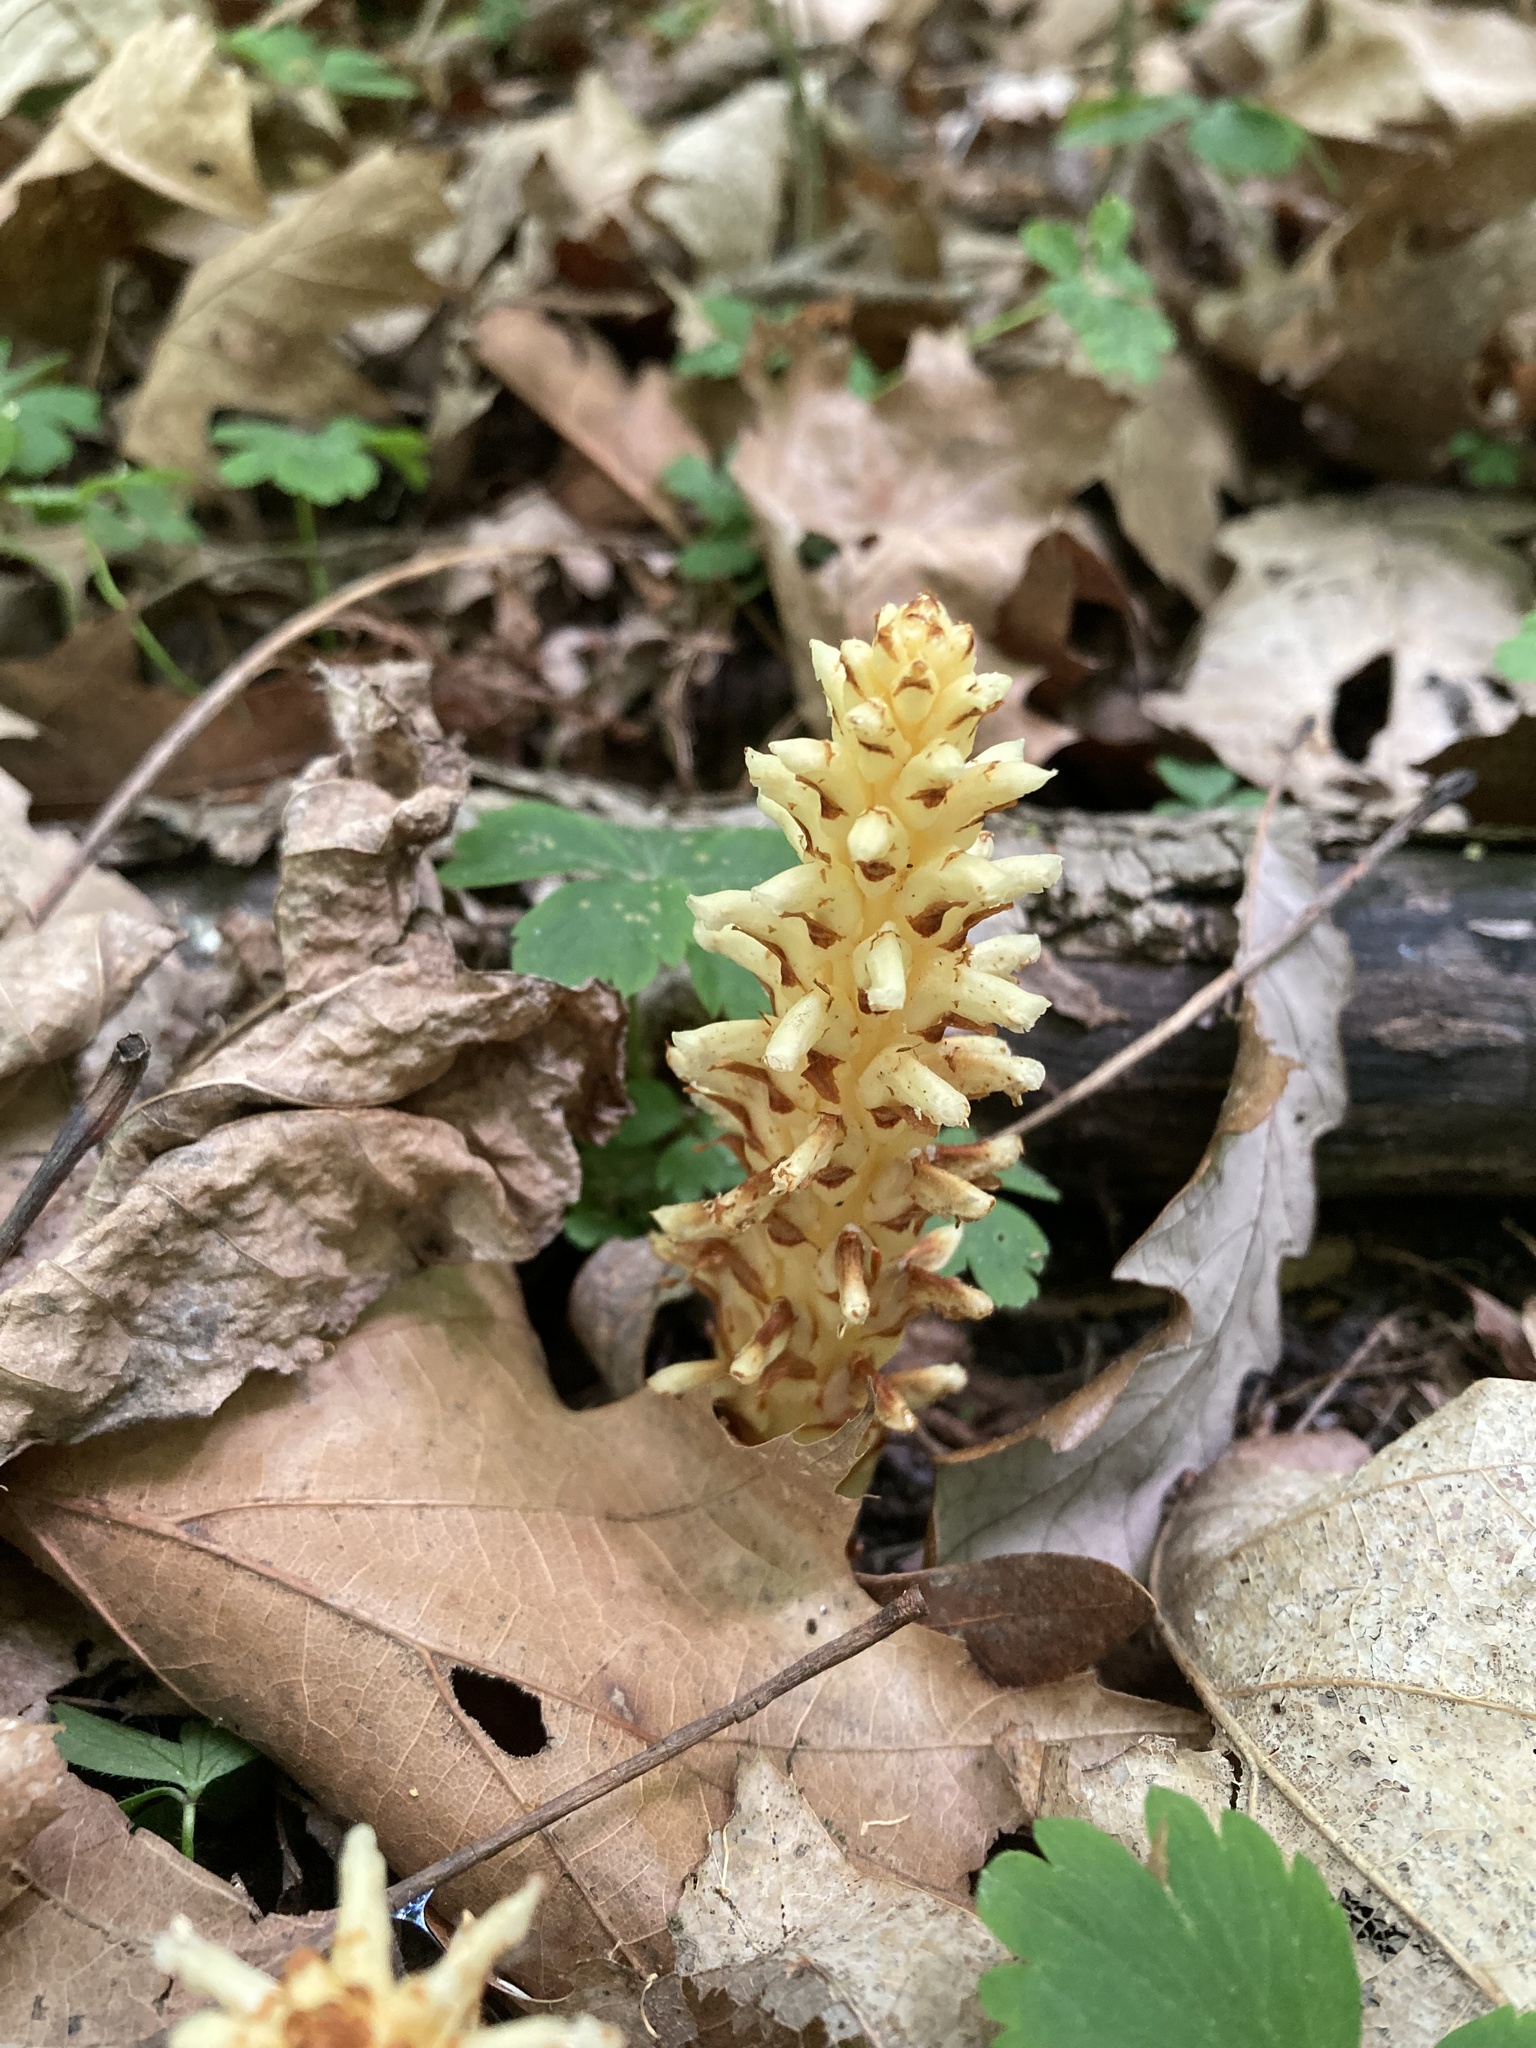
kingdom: Plantae
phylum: Tracheophyta
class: Magnoliopsida
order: Lamiales
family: Orobanchaceae
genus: Conopholis
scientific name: Conopholis americana
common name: American cancer-root
